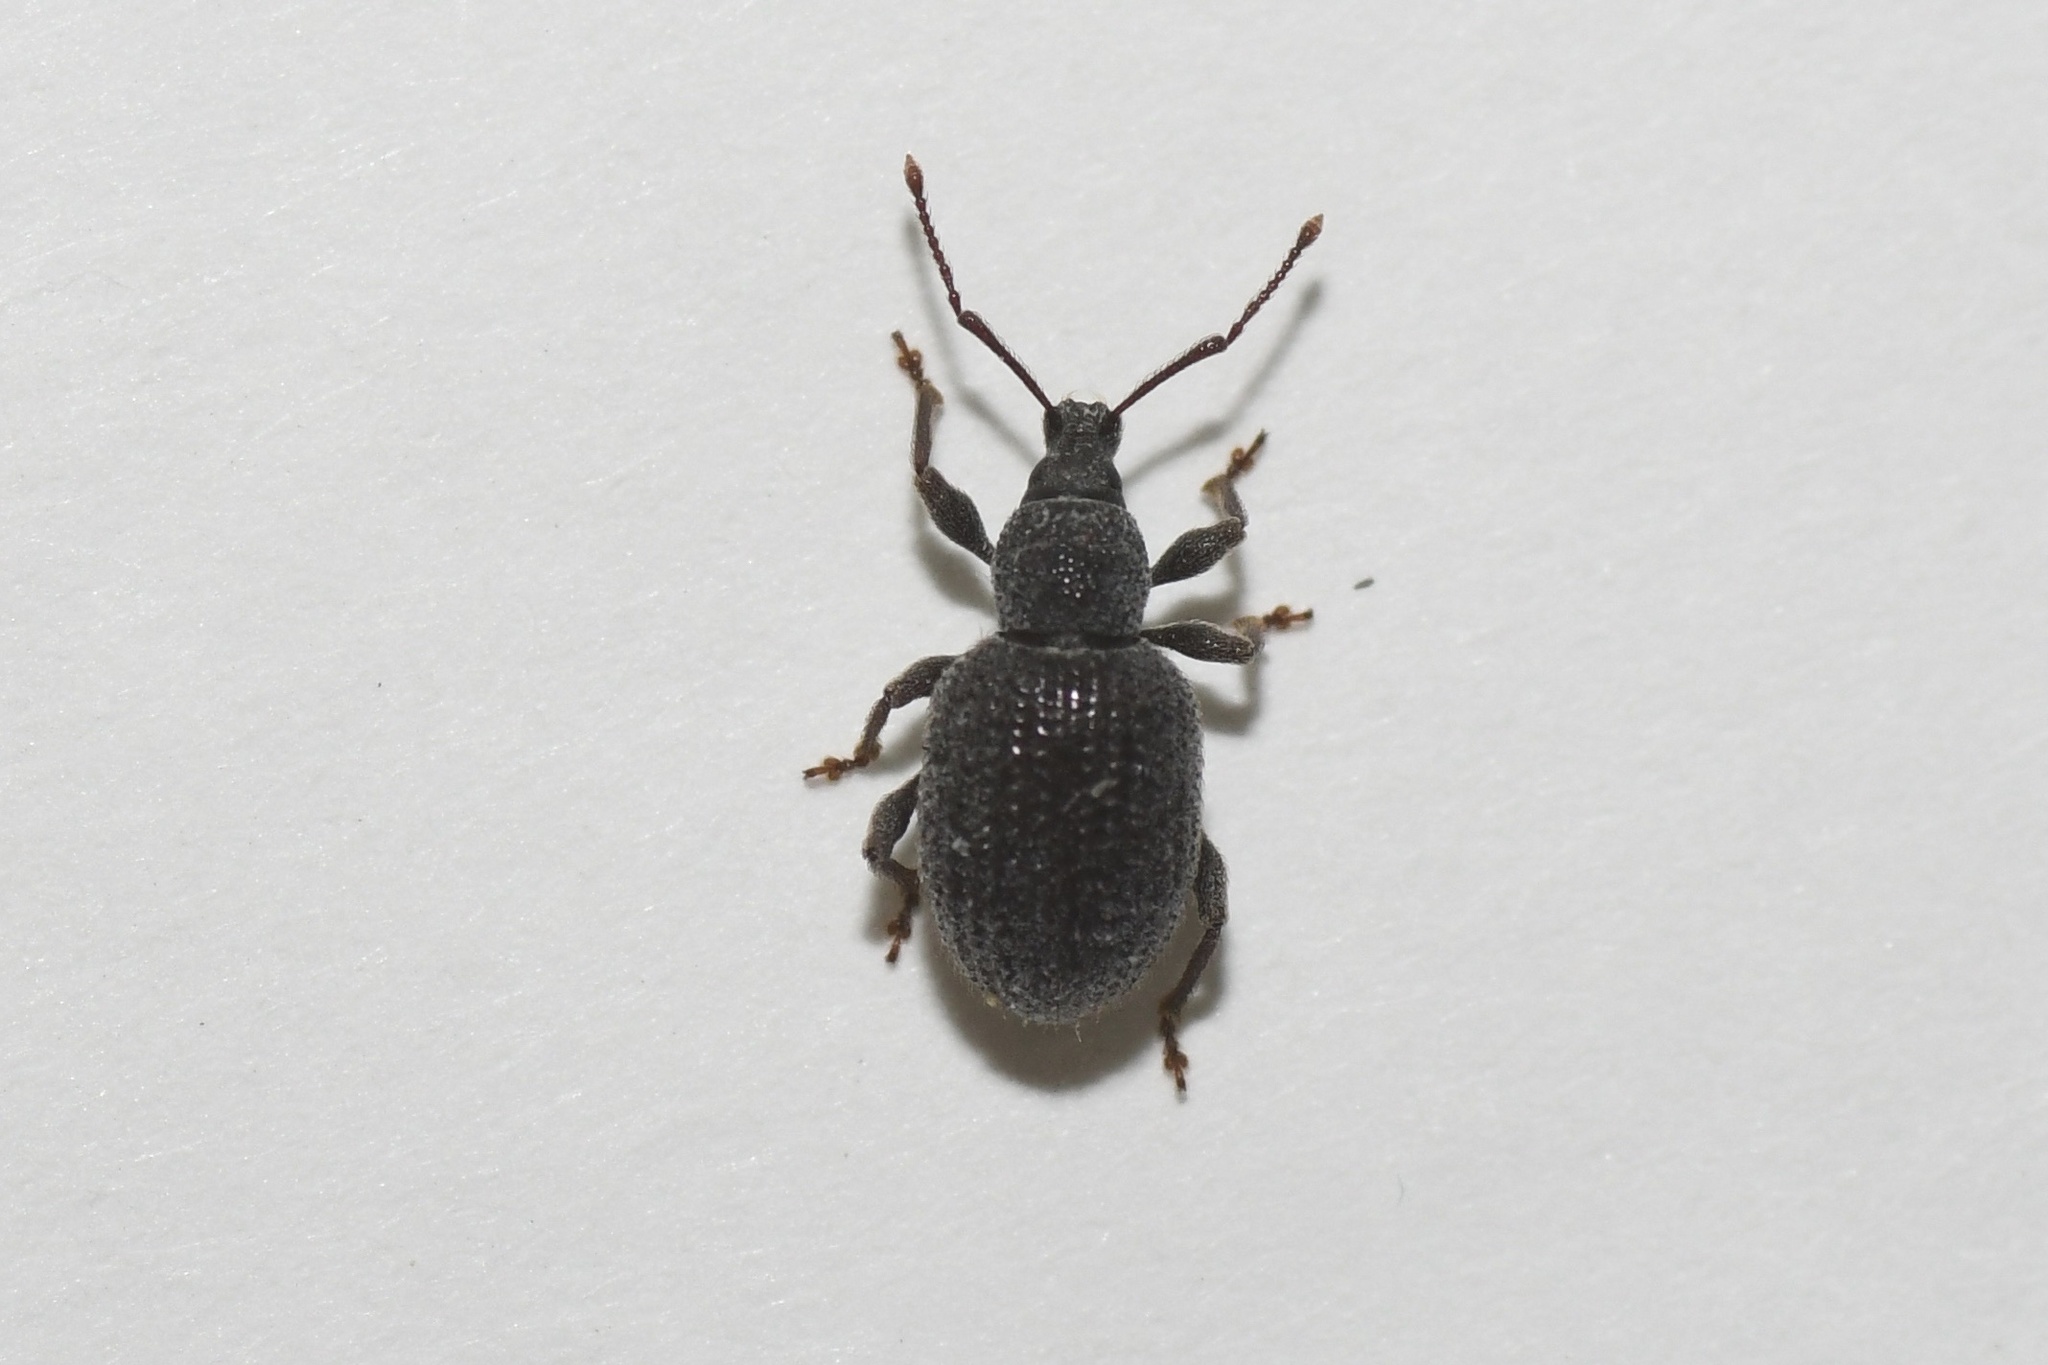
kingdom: Animalia
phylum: Arthropoda
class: Insecta
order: Coleoptera
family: Curculionidae
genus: Otiorhynchus
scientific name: Otiorhynchus rugosostriatus
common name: Weevil
